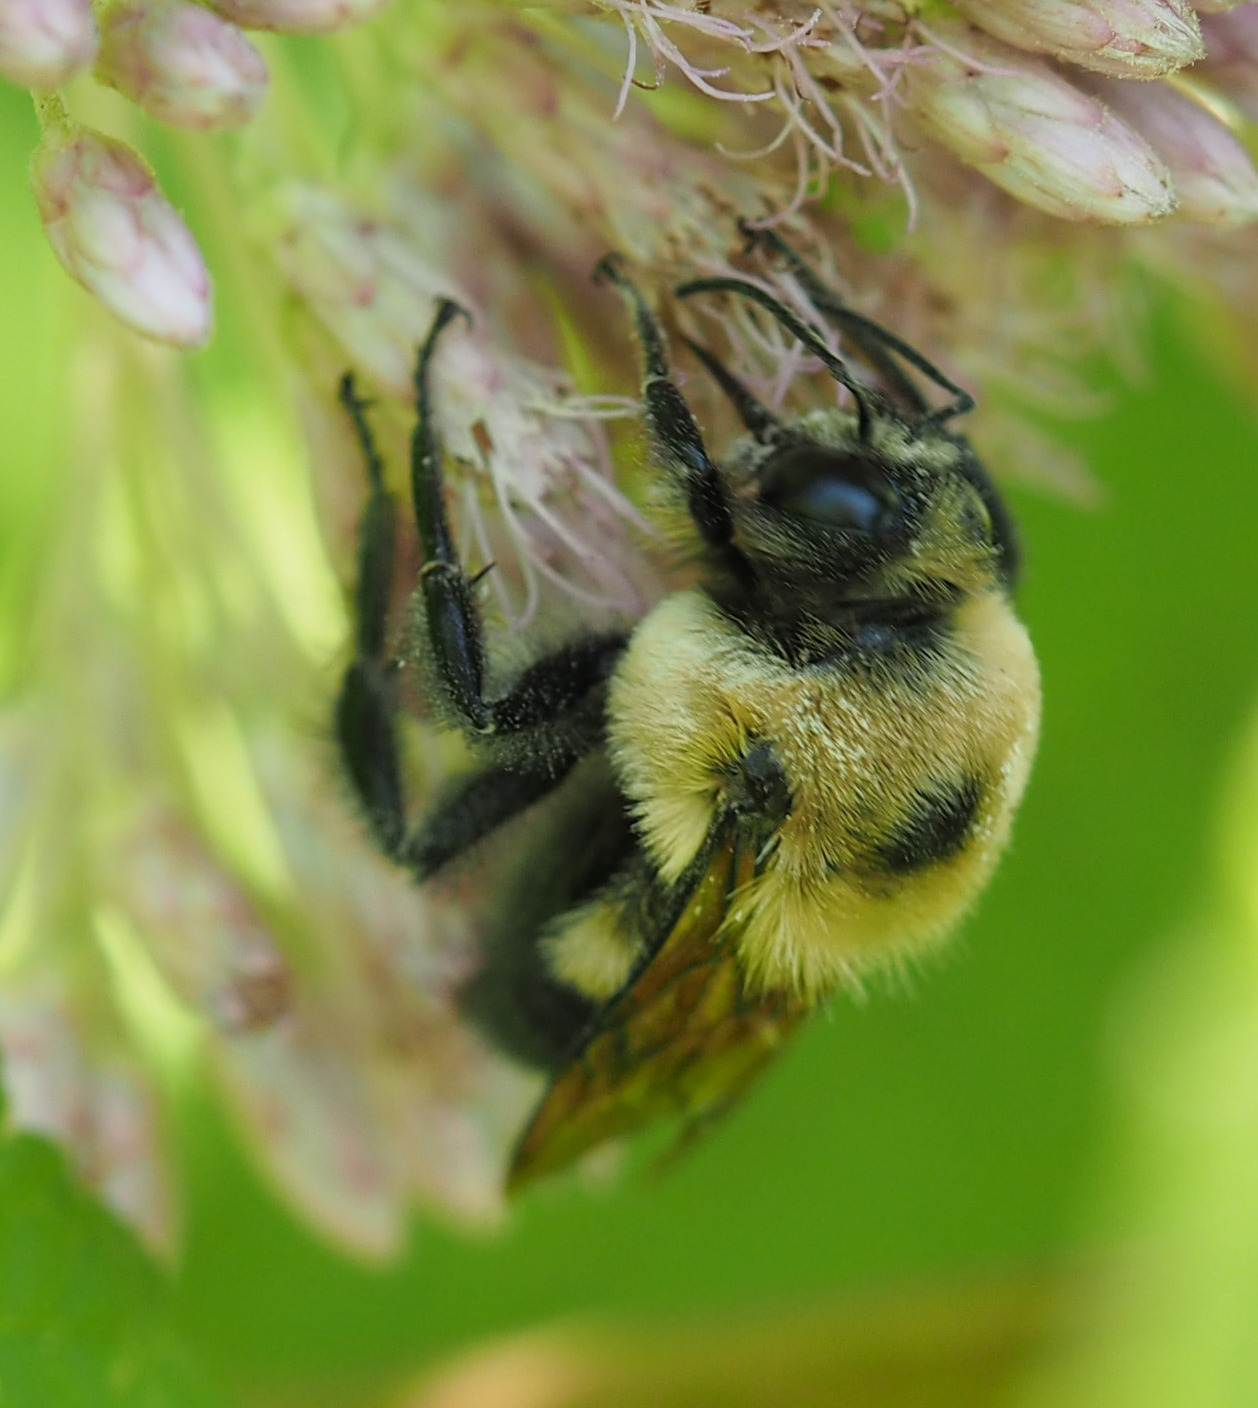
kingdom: Animalia
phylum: Arthropoda
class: Insecta
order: Hymenoptera
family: Apidae
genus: Bombus
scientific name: Bombus griseocollis
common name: Brown-belted bumble bee
